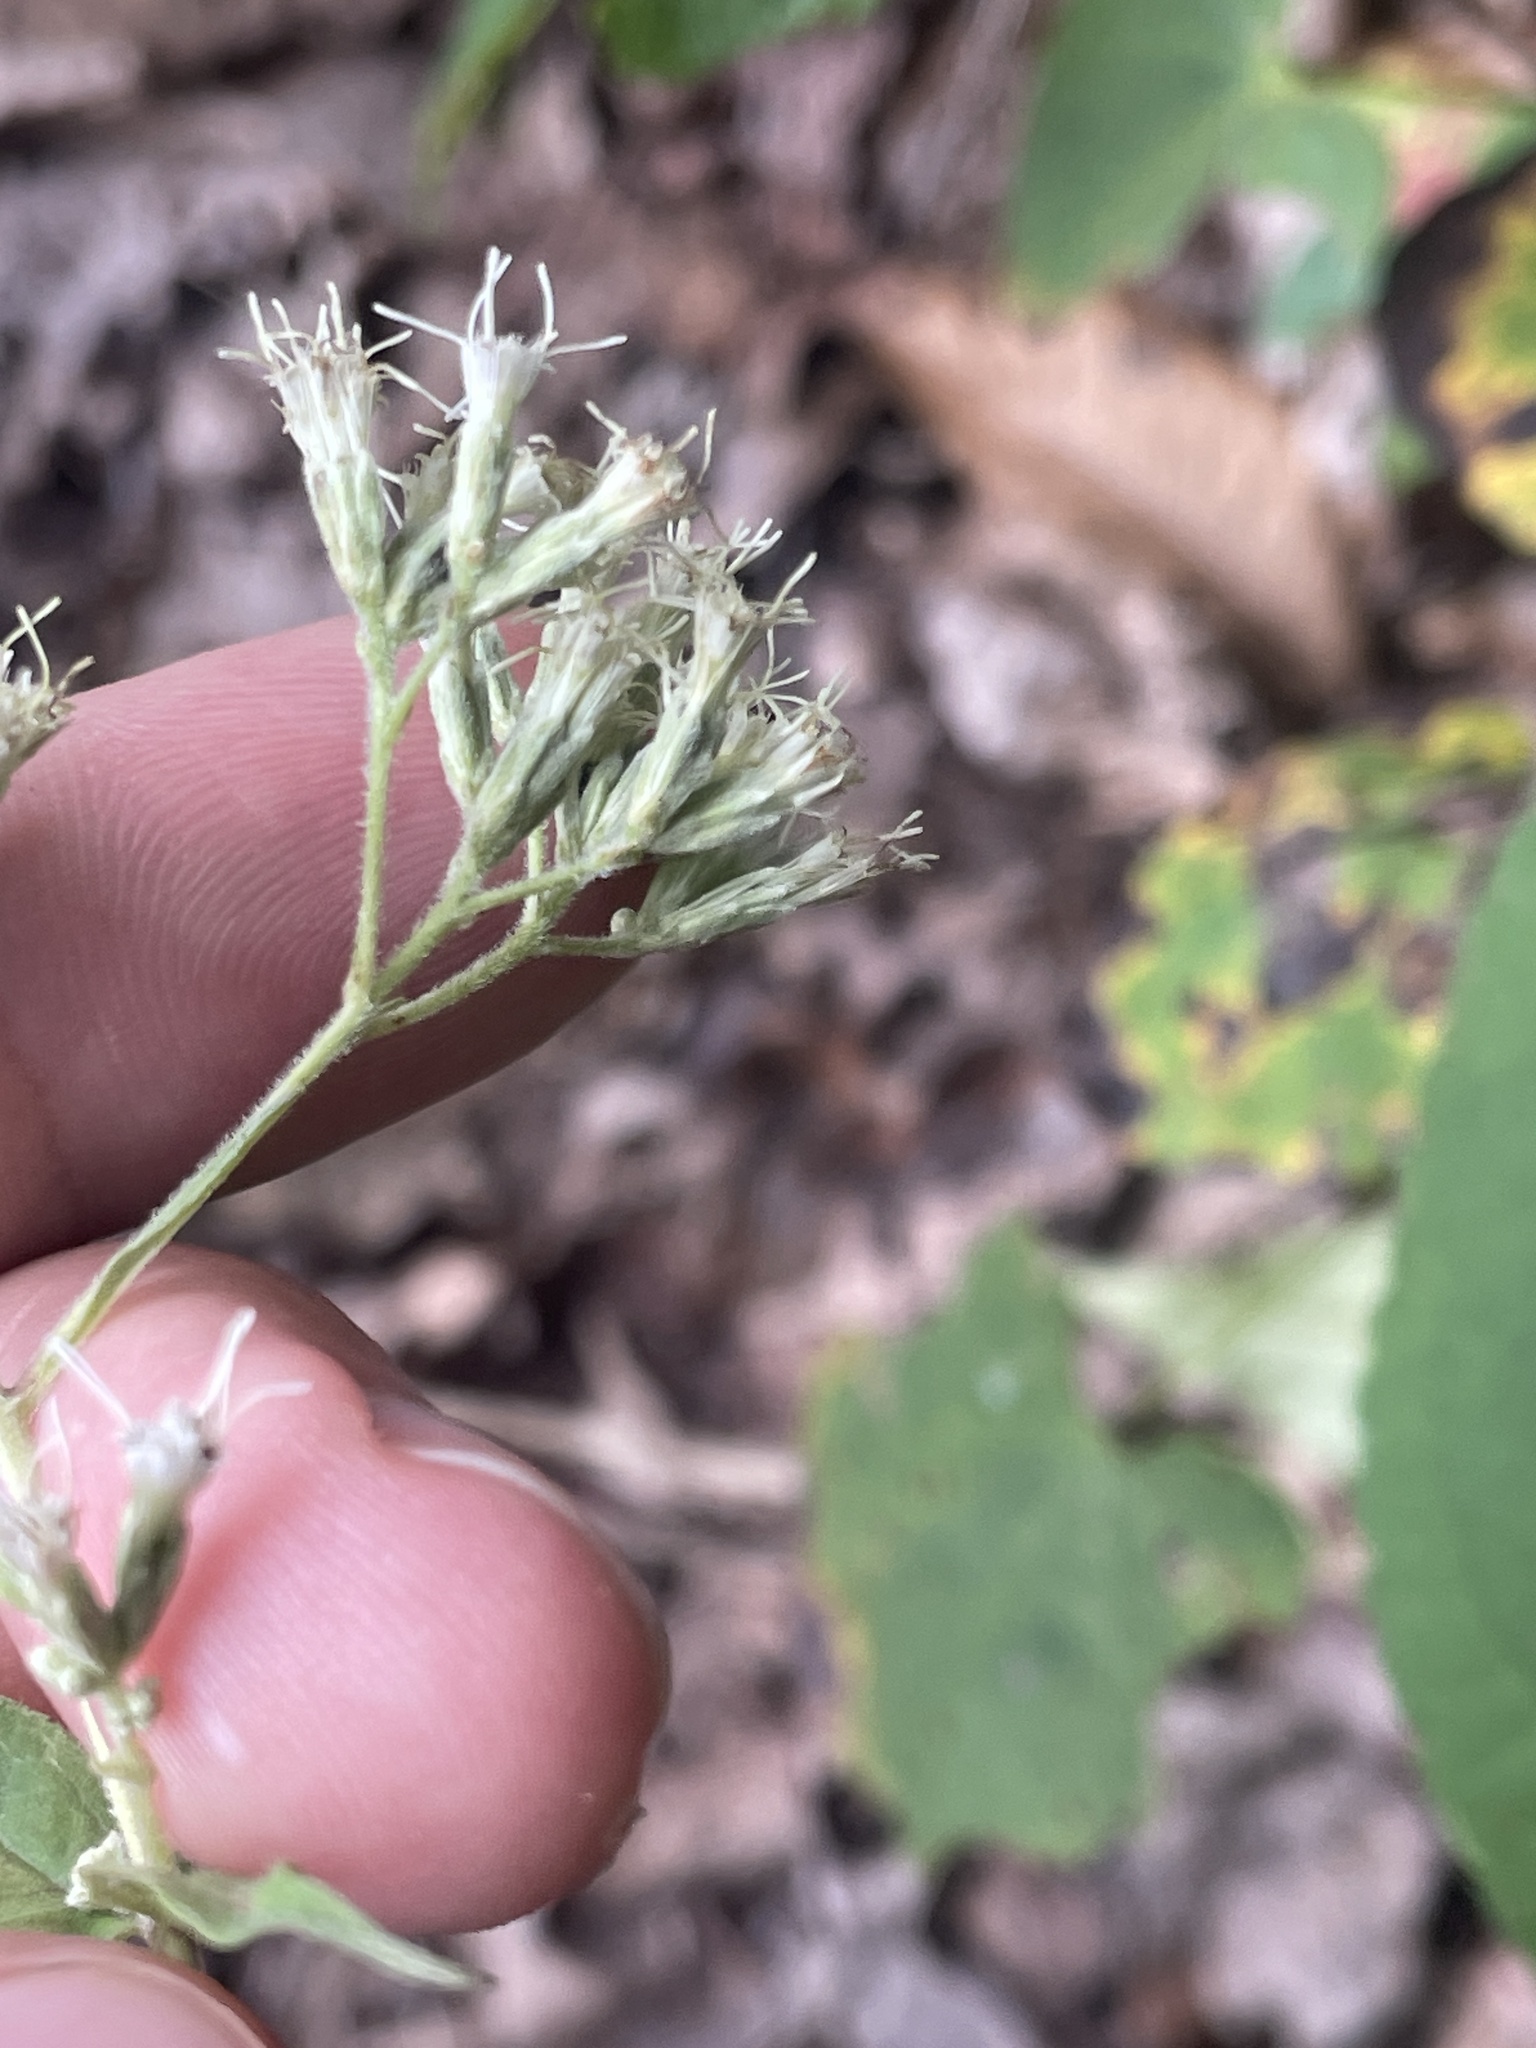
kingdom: Plantae
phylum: Tracheophyta
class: Magnoliopsida
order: Asterales
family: Asteraceae
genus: Eupatorium
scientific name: Eupatorium godfreyanum
